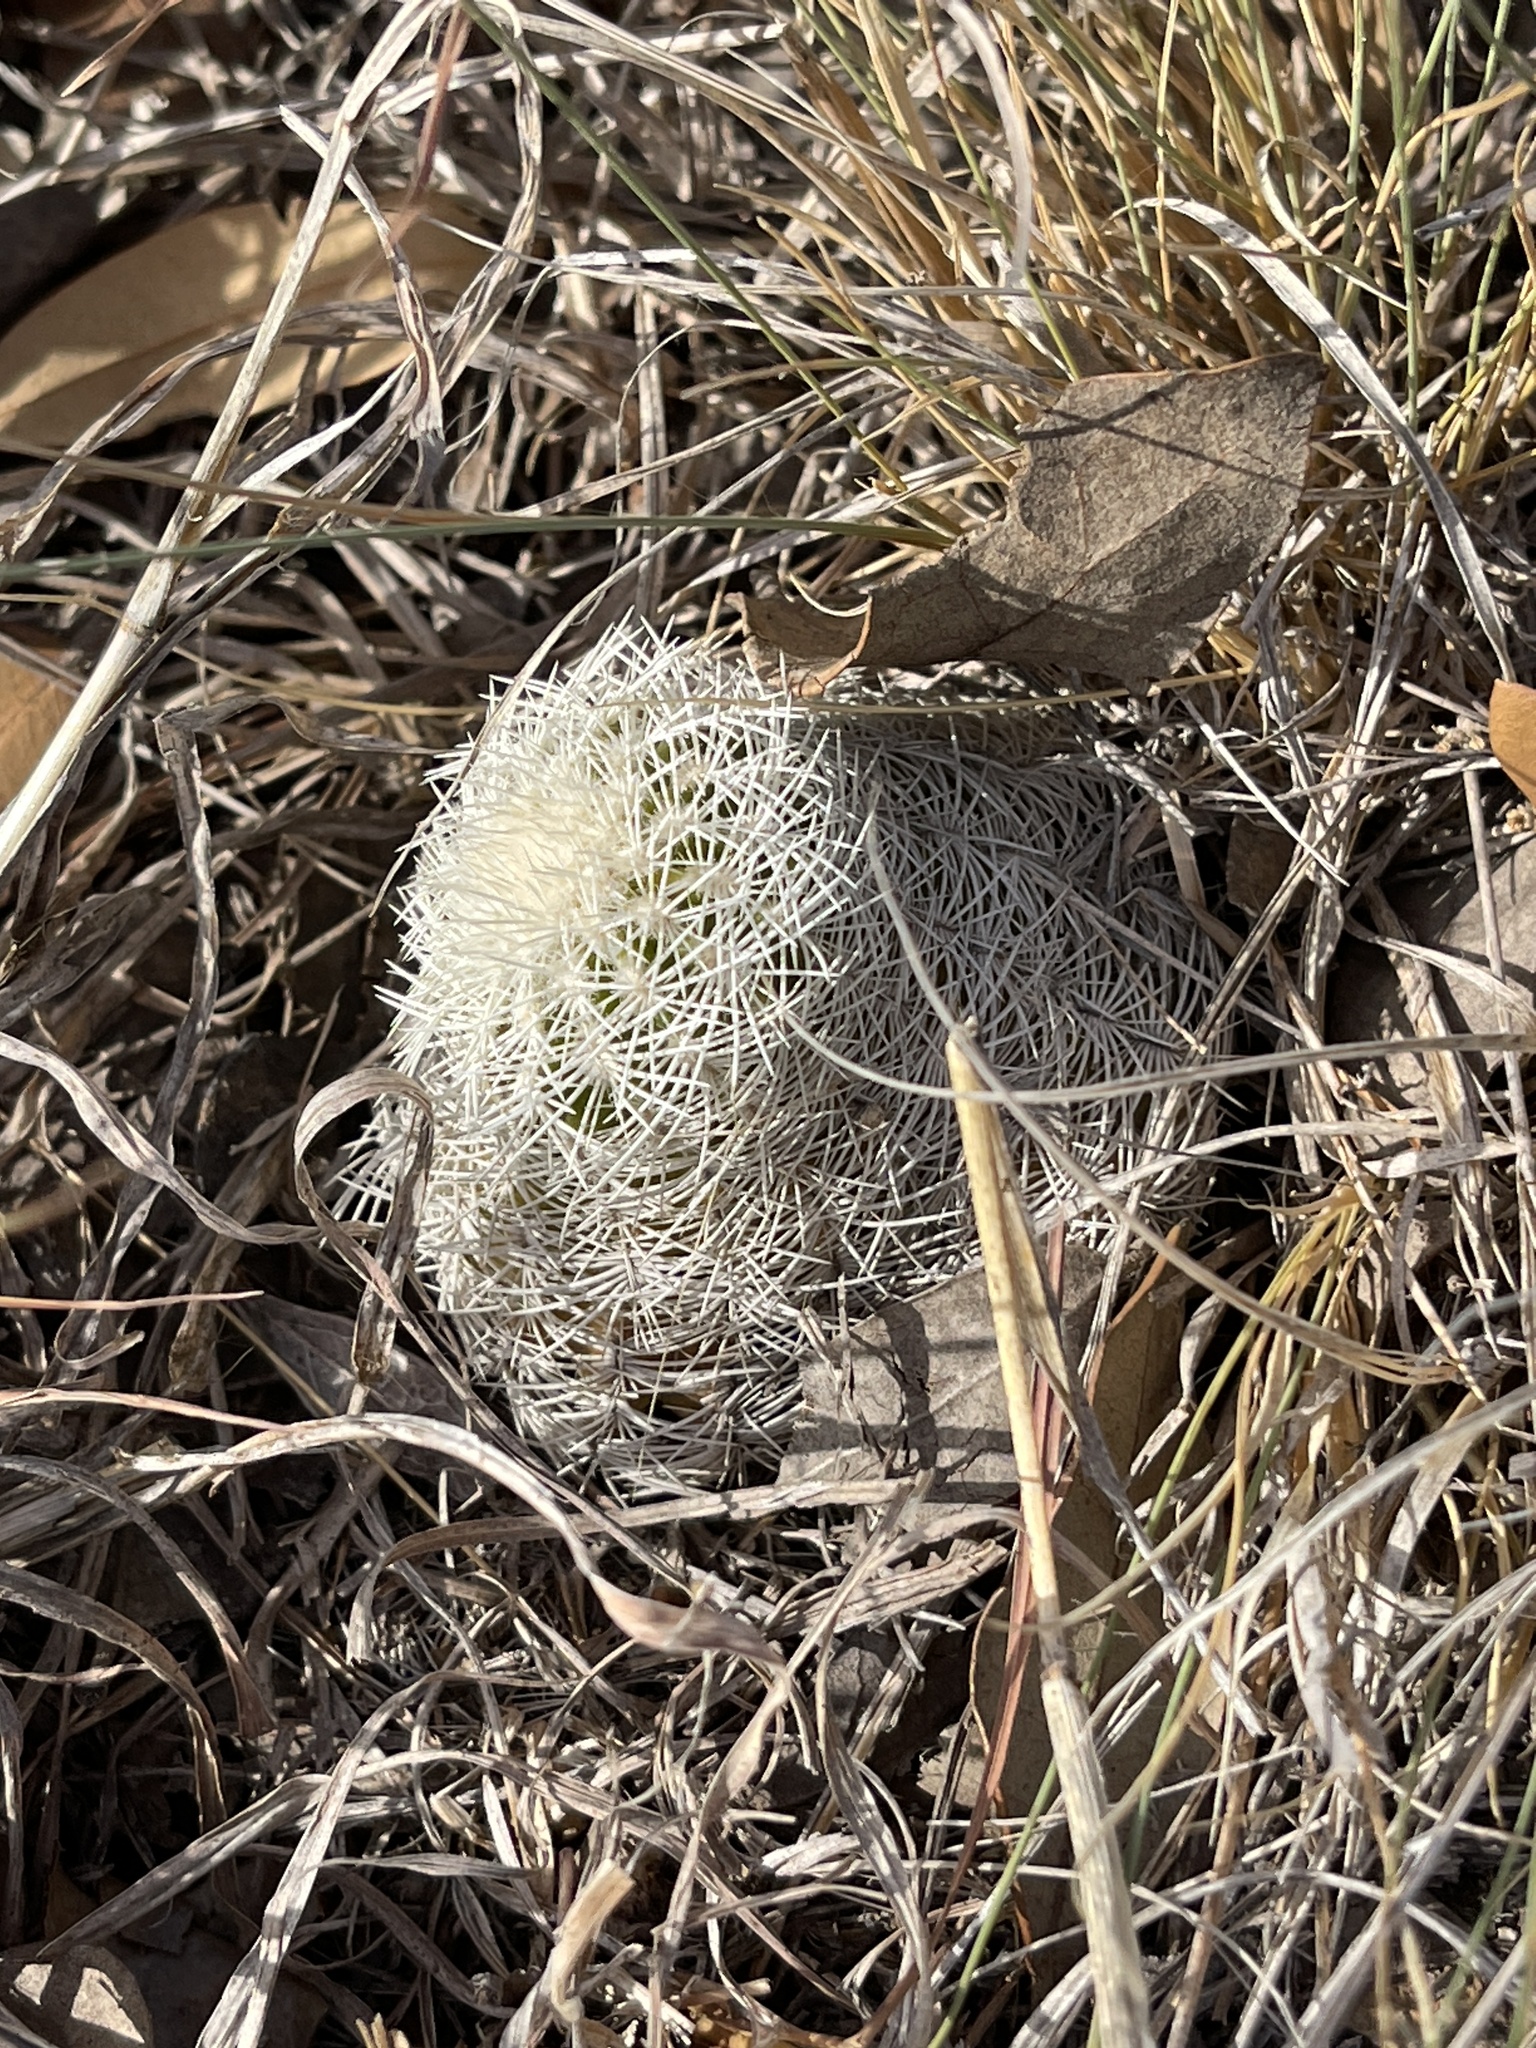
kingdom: Plantae
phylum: Tracheophyta
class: Magnoliopsida
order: Caryophyllales
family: Cactaceae
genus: Echinocereus
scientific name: Echinocereus reichenbachii
